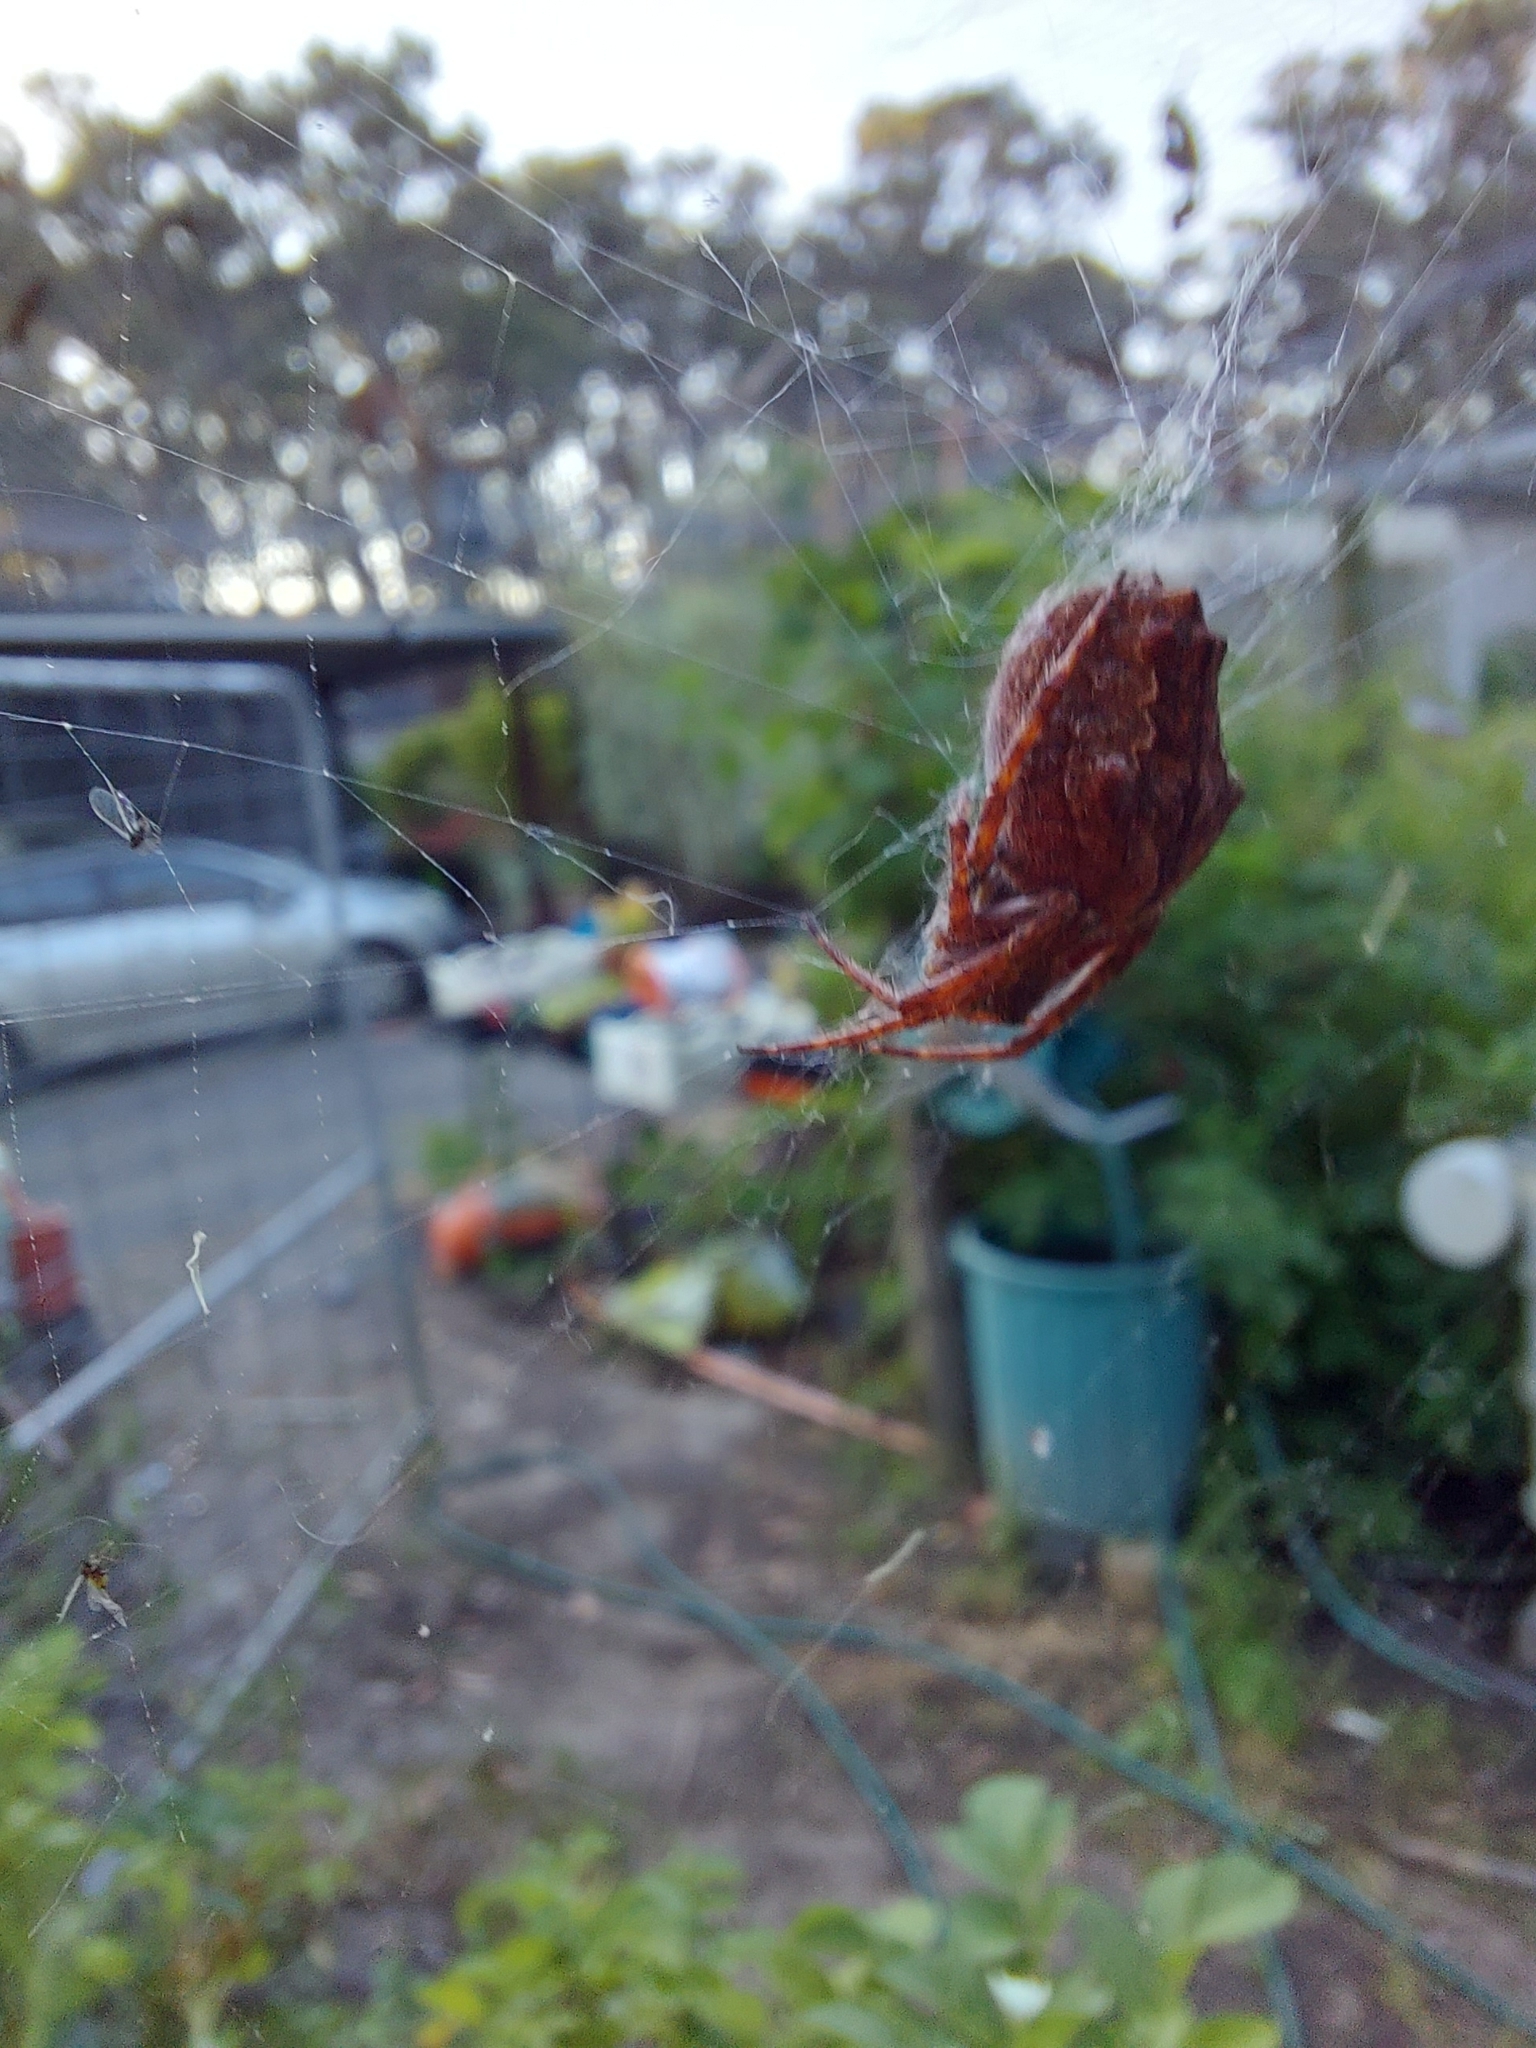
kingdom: Animalia
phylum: Arthropoda
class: Arachnida
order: Araneae
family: Araneidae
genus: Eriophora
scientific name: Eriophora pustulosa
